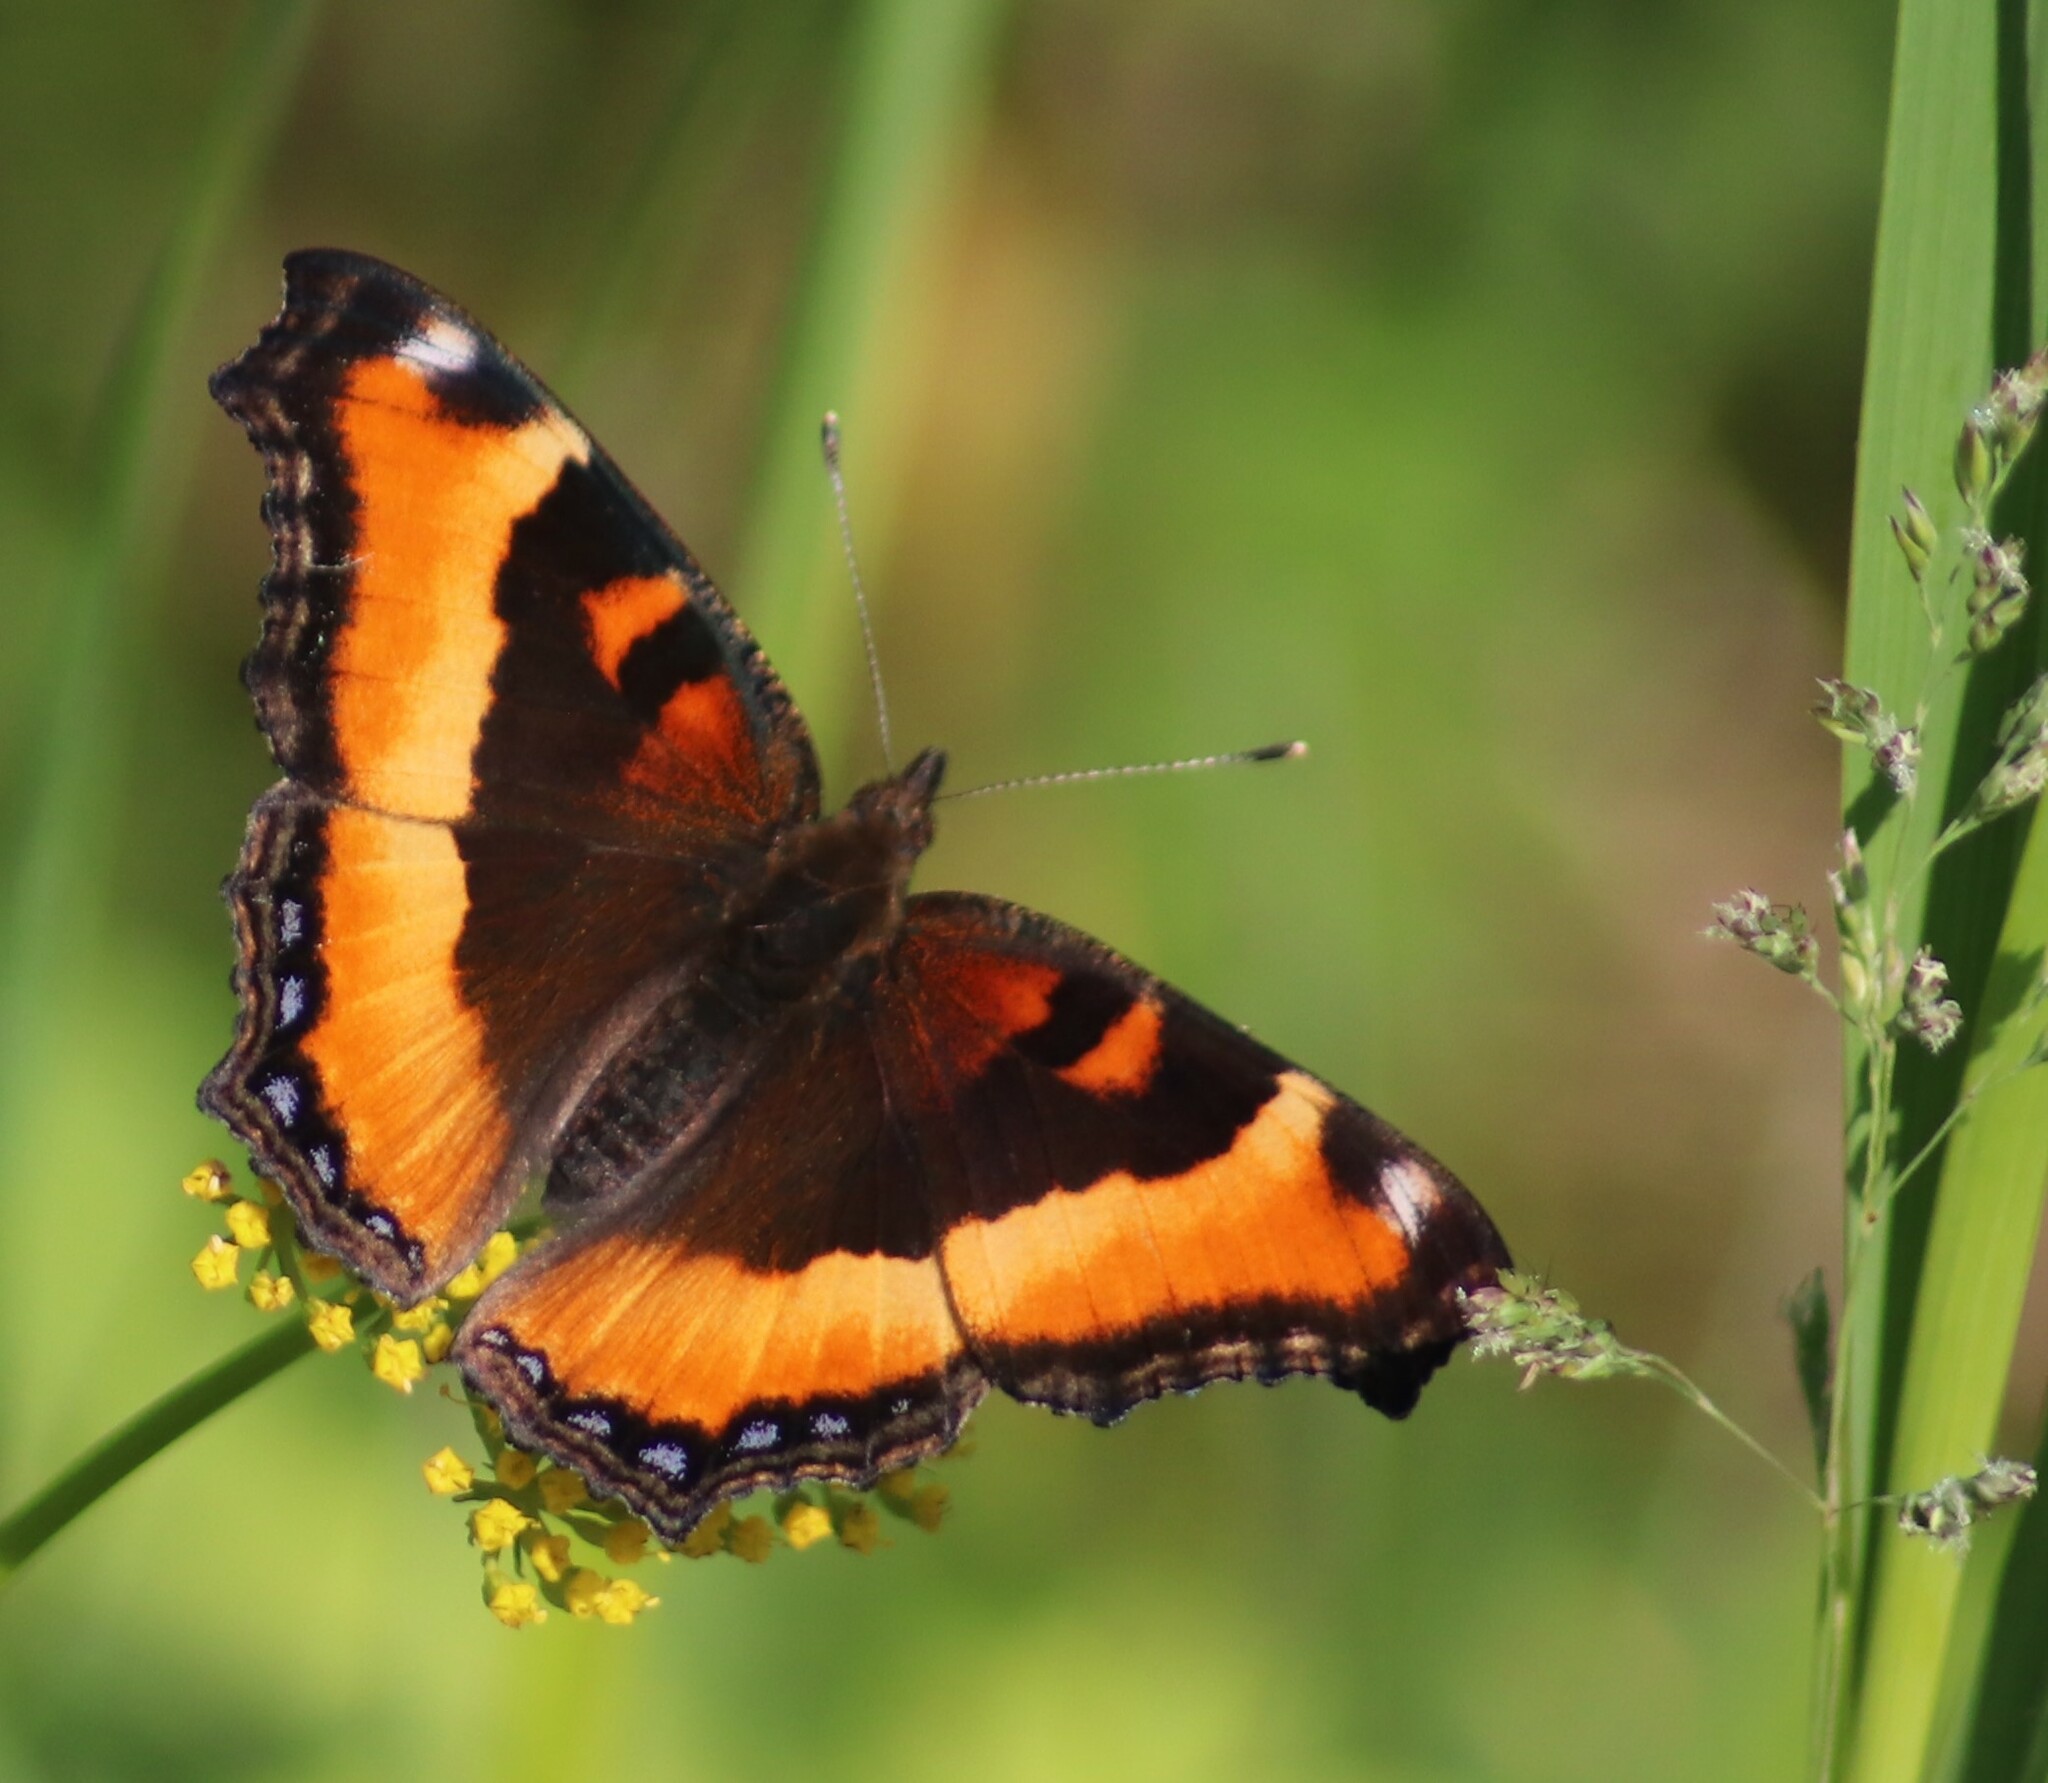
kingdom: Animalia
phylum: Arthropoda
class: Insecta
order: Lepidoptera
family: Nymphalidae
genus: Aglais
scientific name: Aglais milberti
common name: Milbert's tortoiseshell
